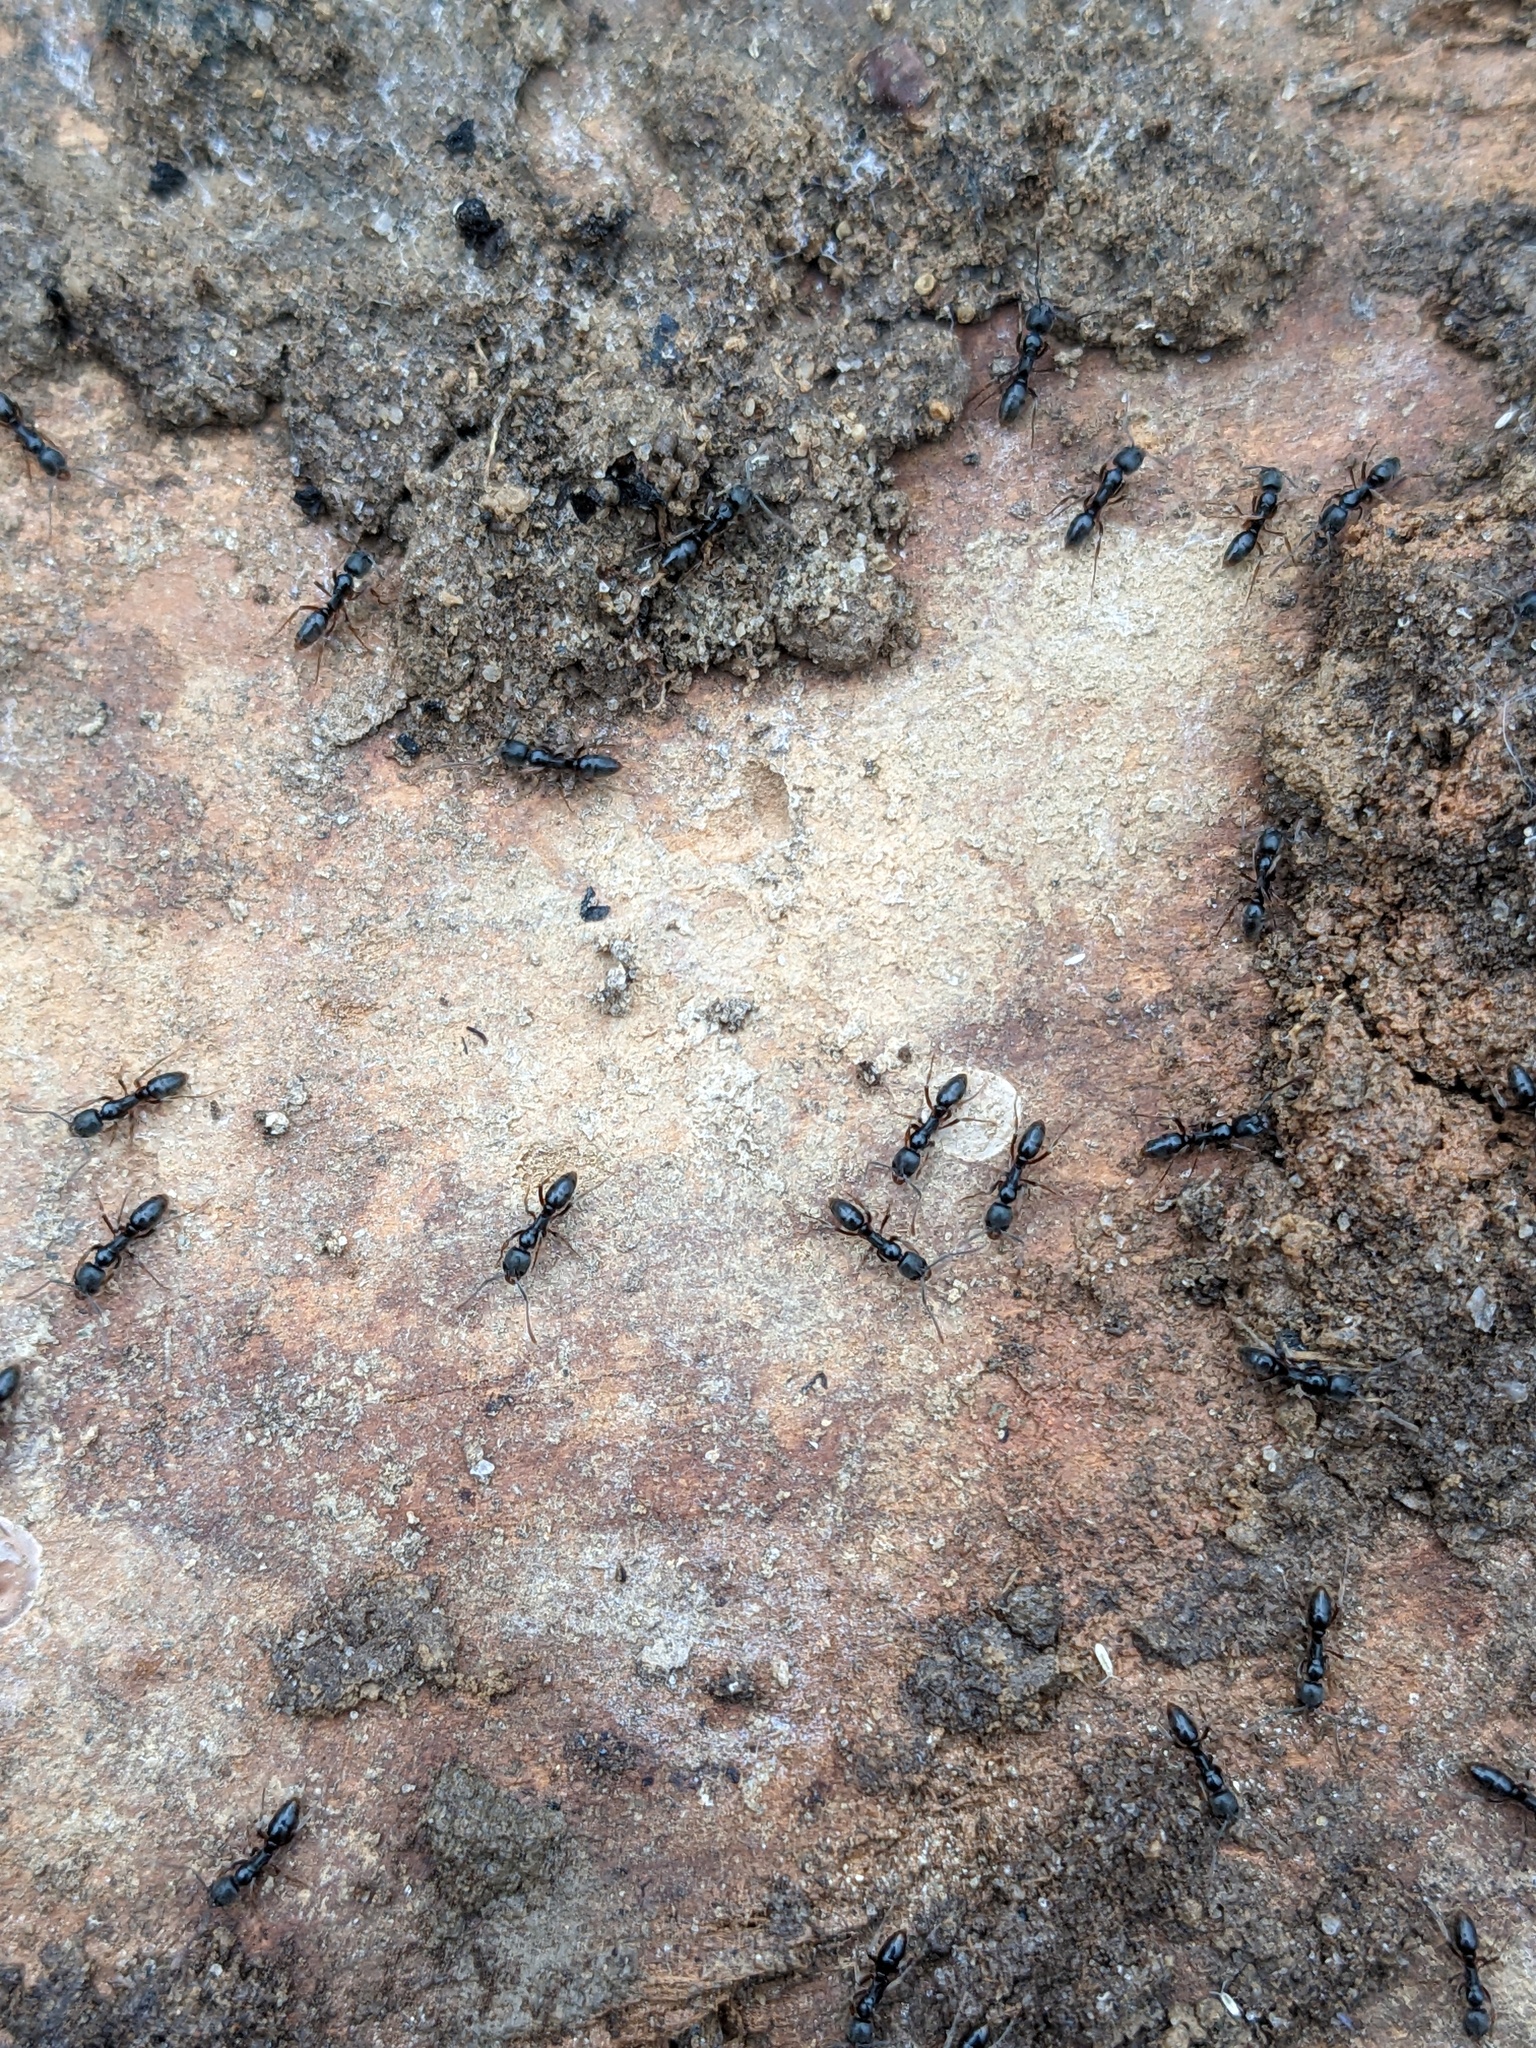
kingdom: Animalia
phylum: Arthropoda
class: Insecta
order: Hymenoptera
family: Formicidae
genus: Pachycondyla
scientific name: Pachycondyla chinensis
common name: Asian needle ant
